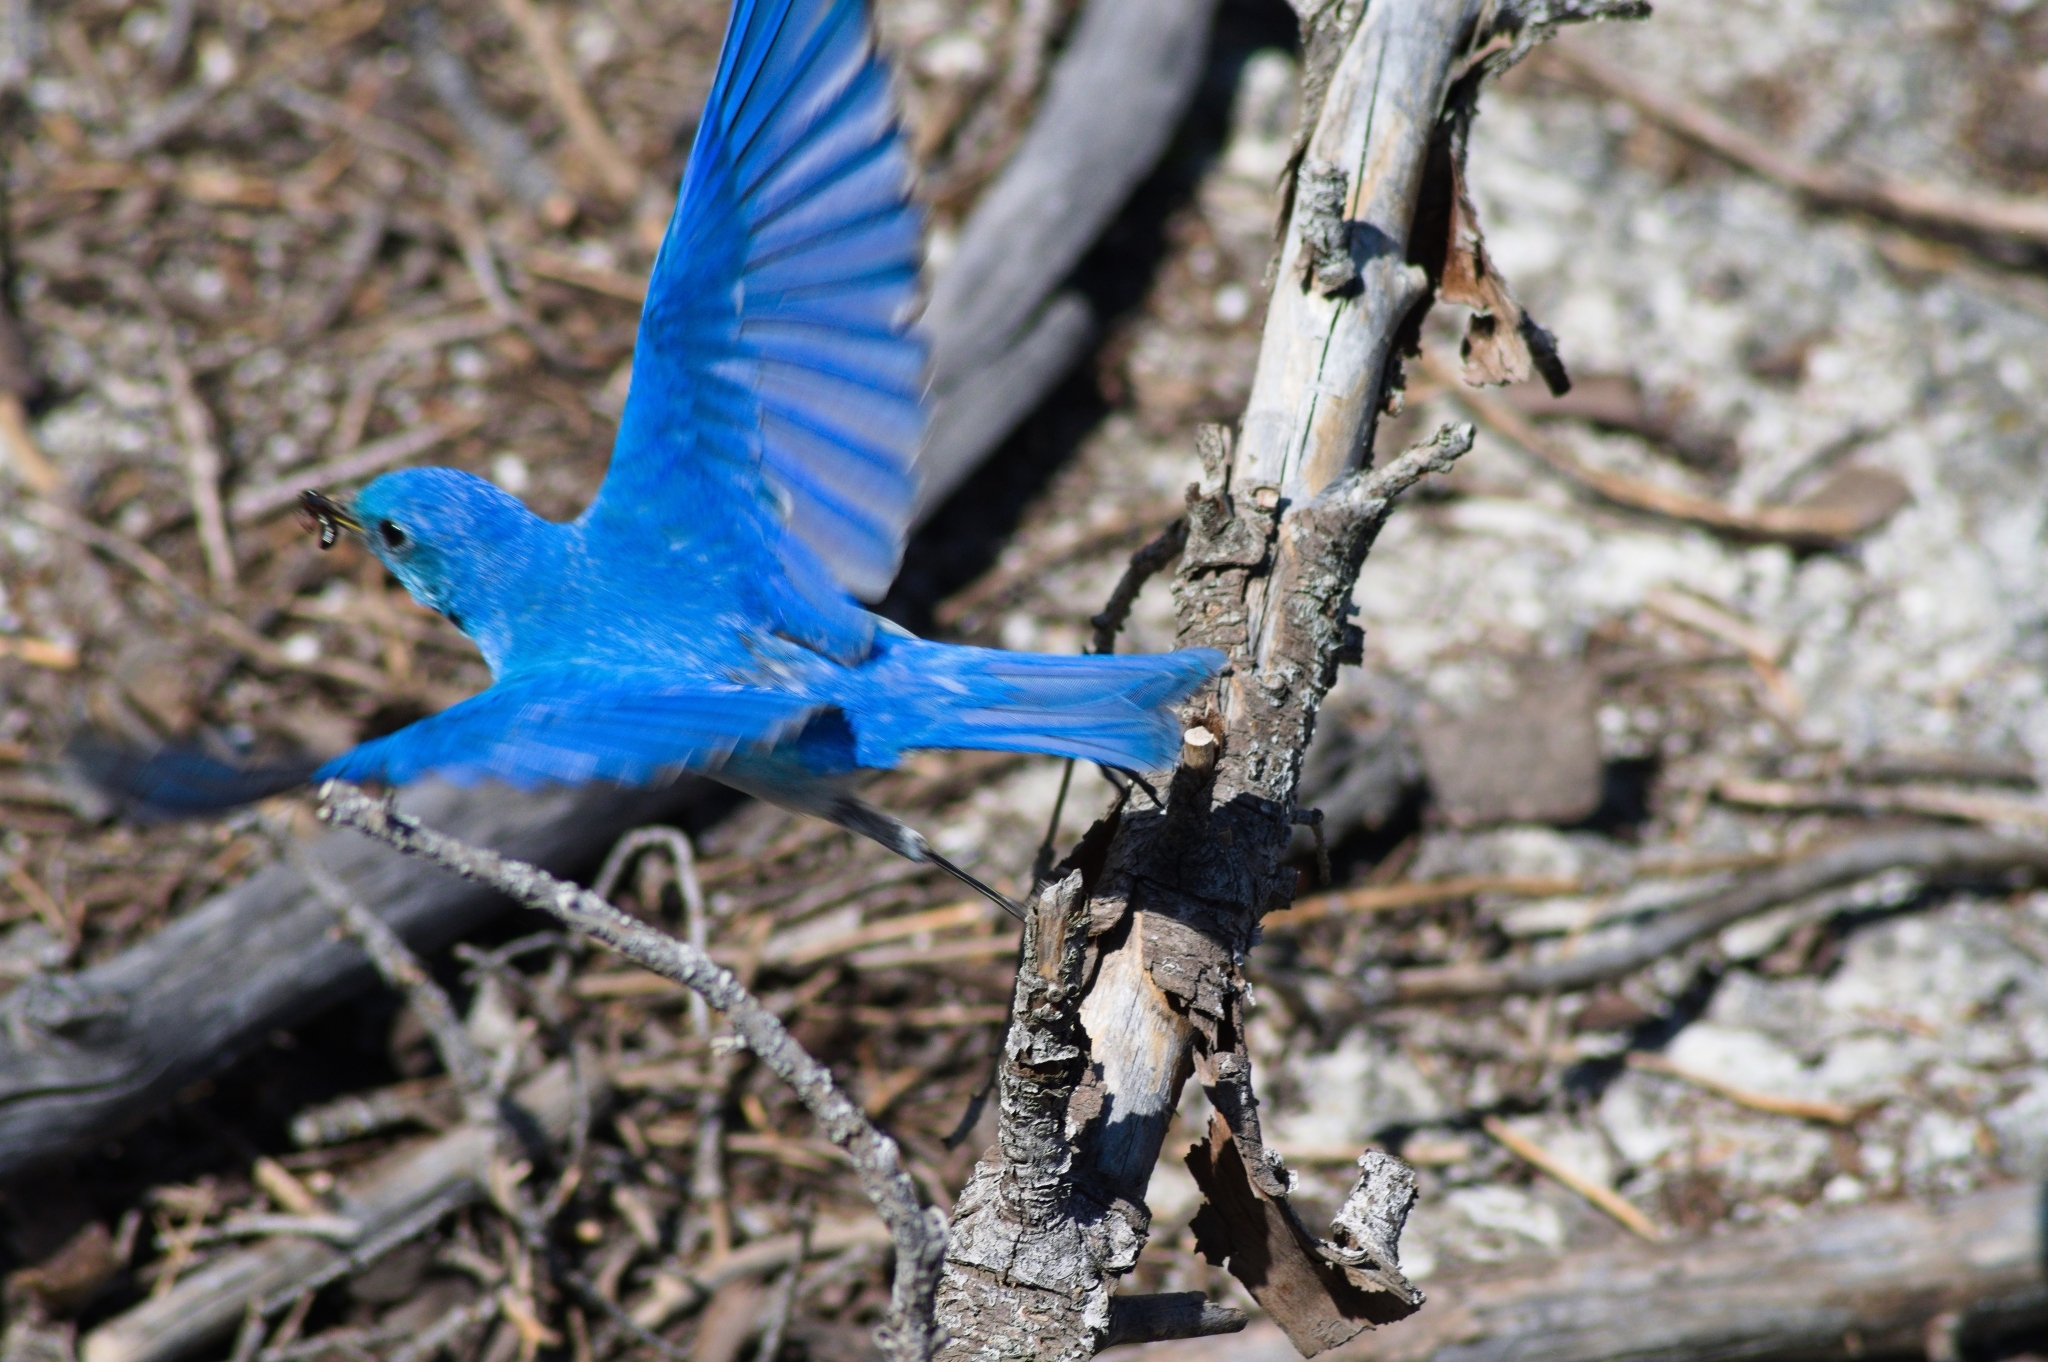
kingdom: Animalia
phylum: Chordata
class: Aves
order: Passeriformes
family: Turdidae
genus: Sialia
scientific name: Sialia currucoides
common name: Mountain bluebird
